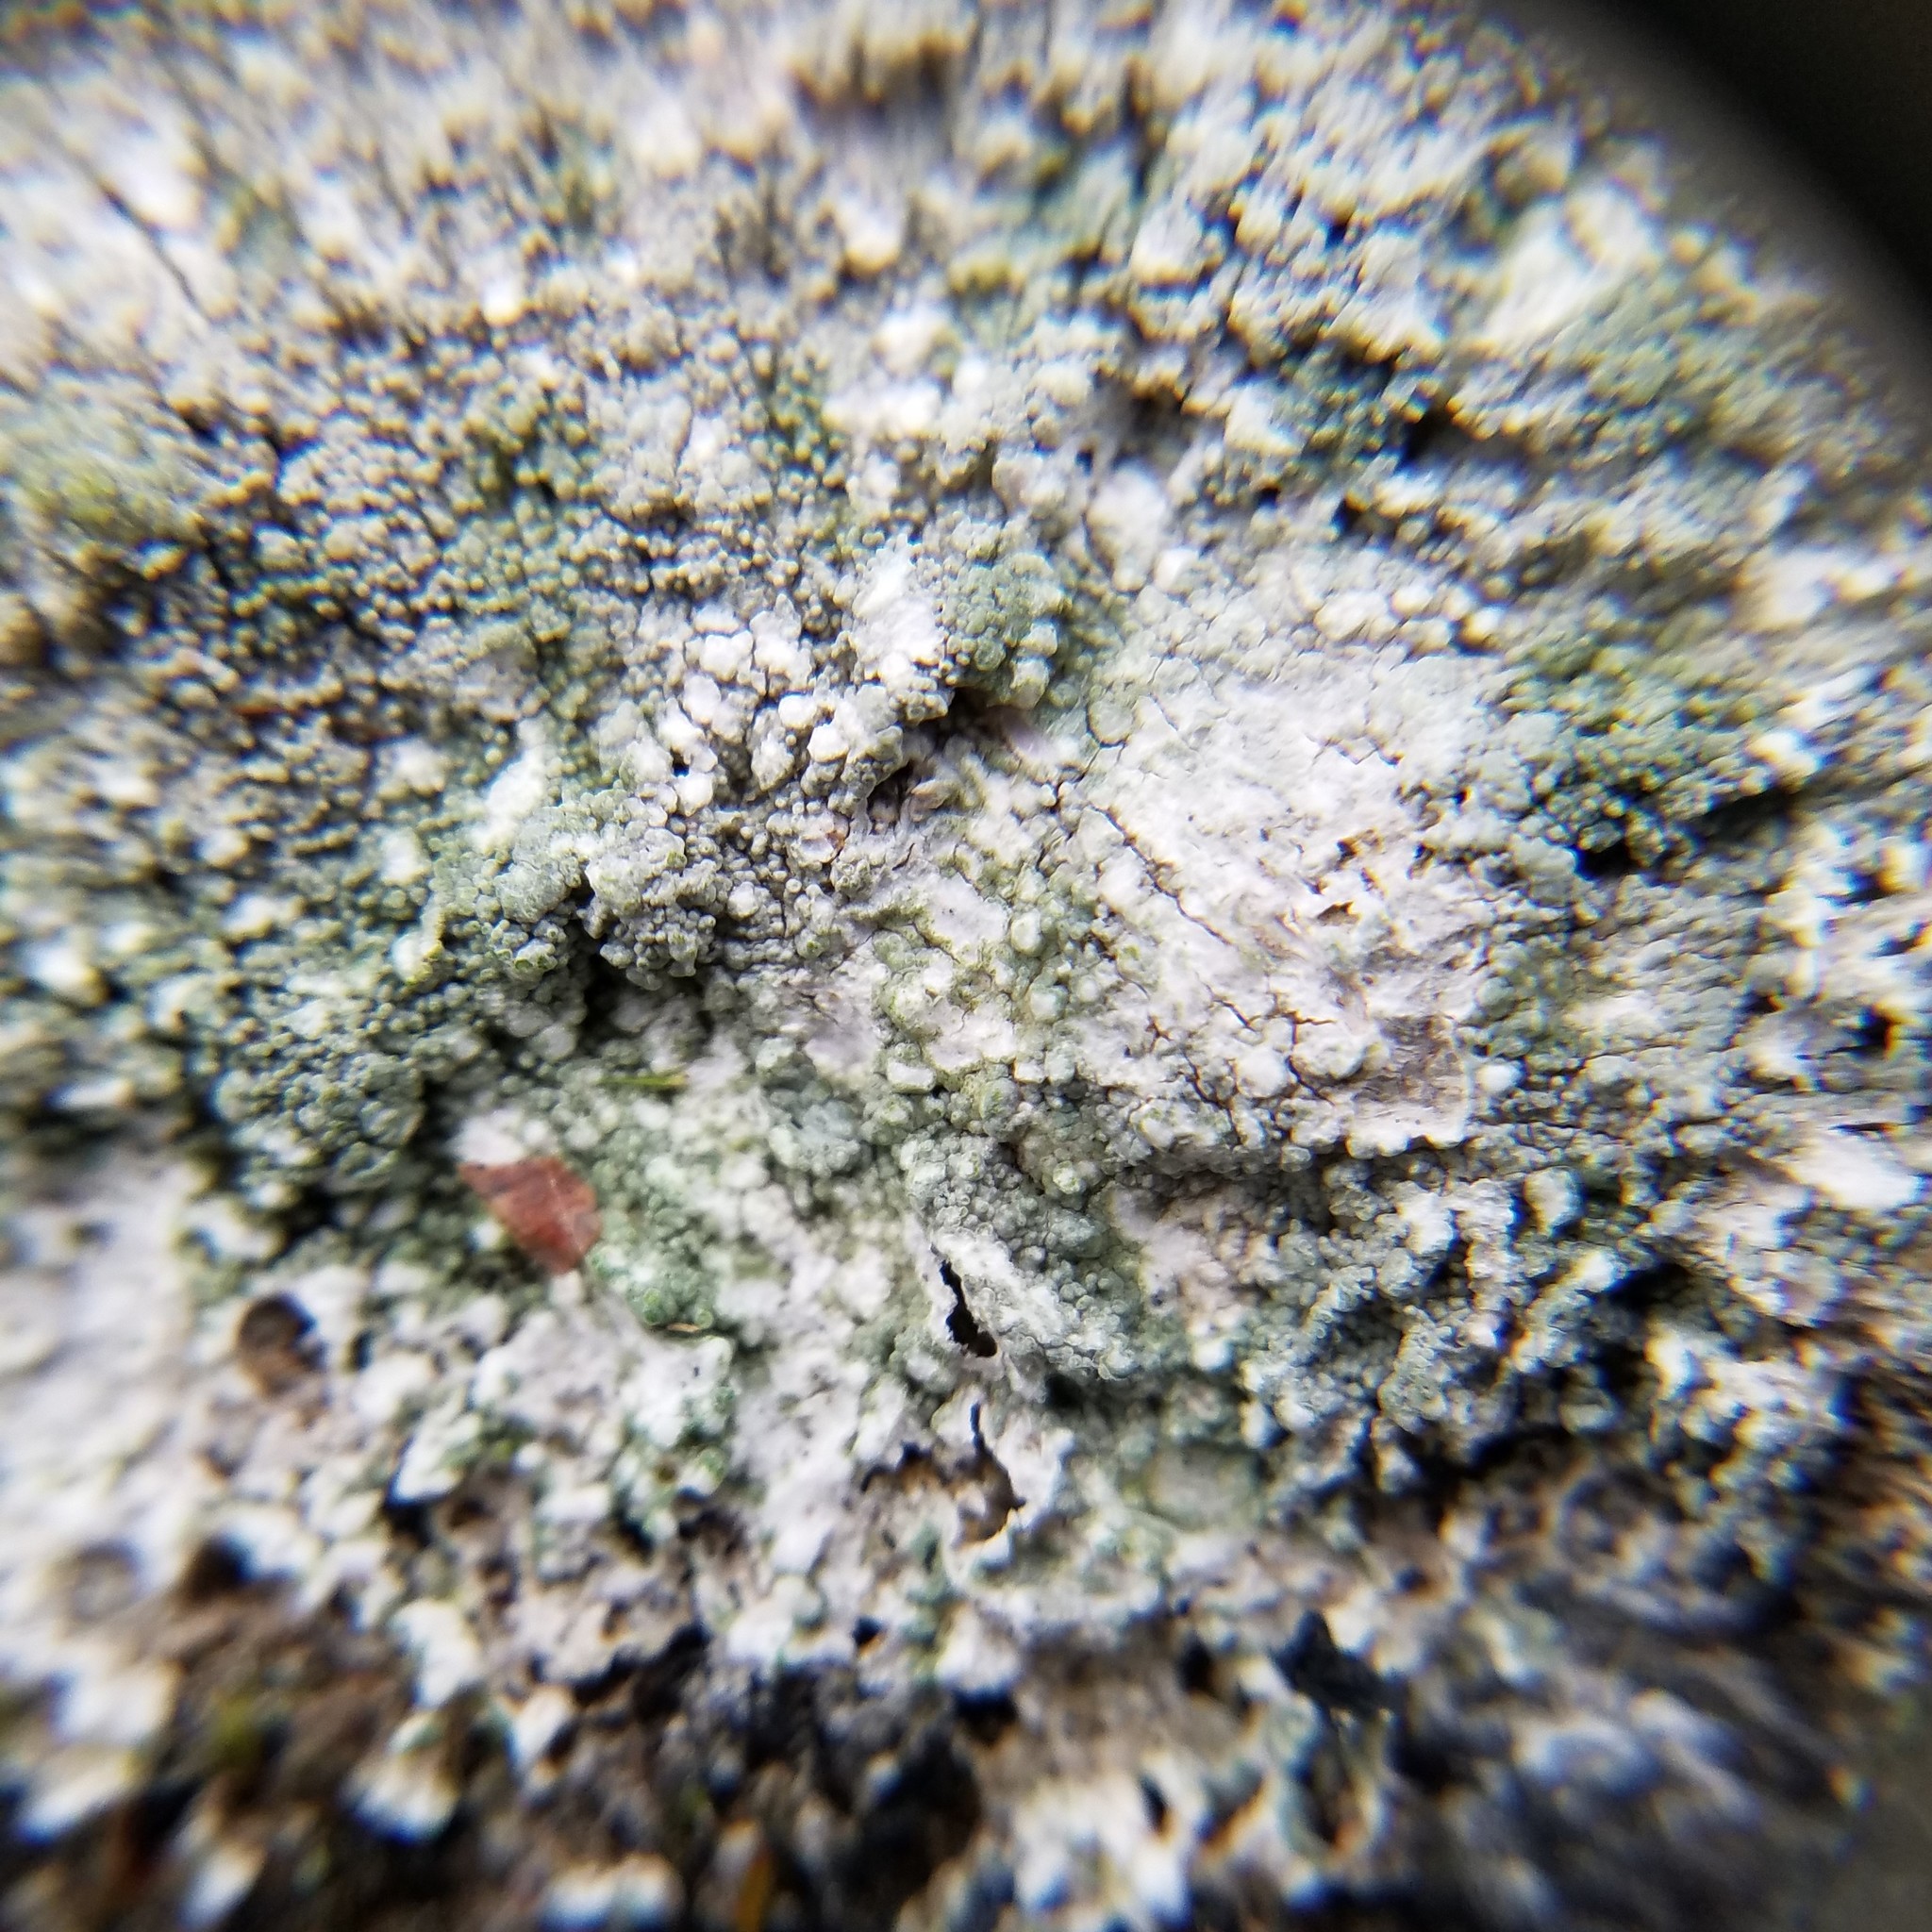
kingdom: Fungi
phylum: Ascomycota
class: Lecanoromycetes
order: Pertusariales
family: Ochrolechiaceae
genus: Ochrolechia
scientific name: Ochrolechia yasudae
